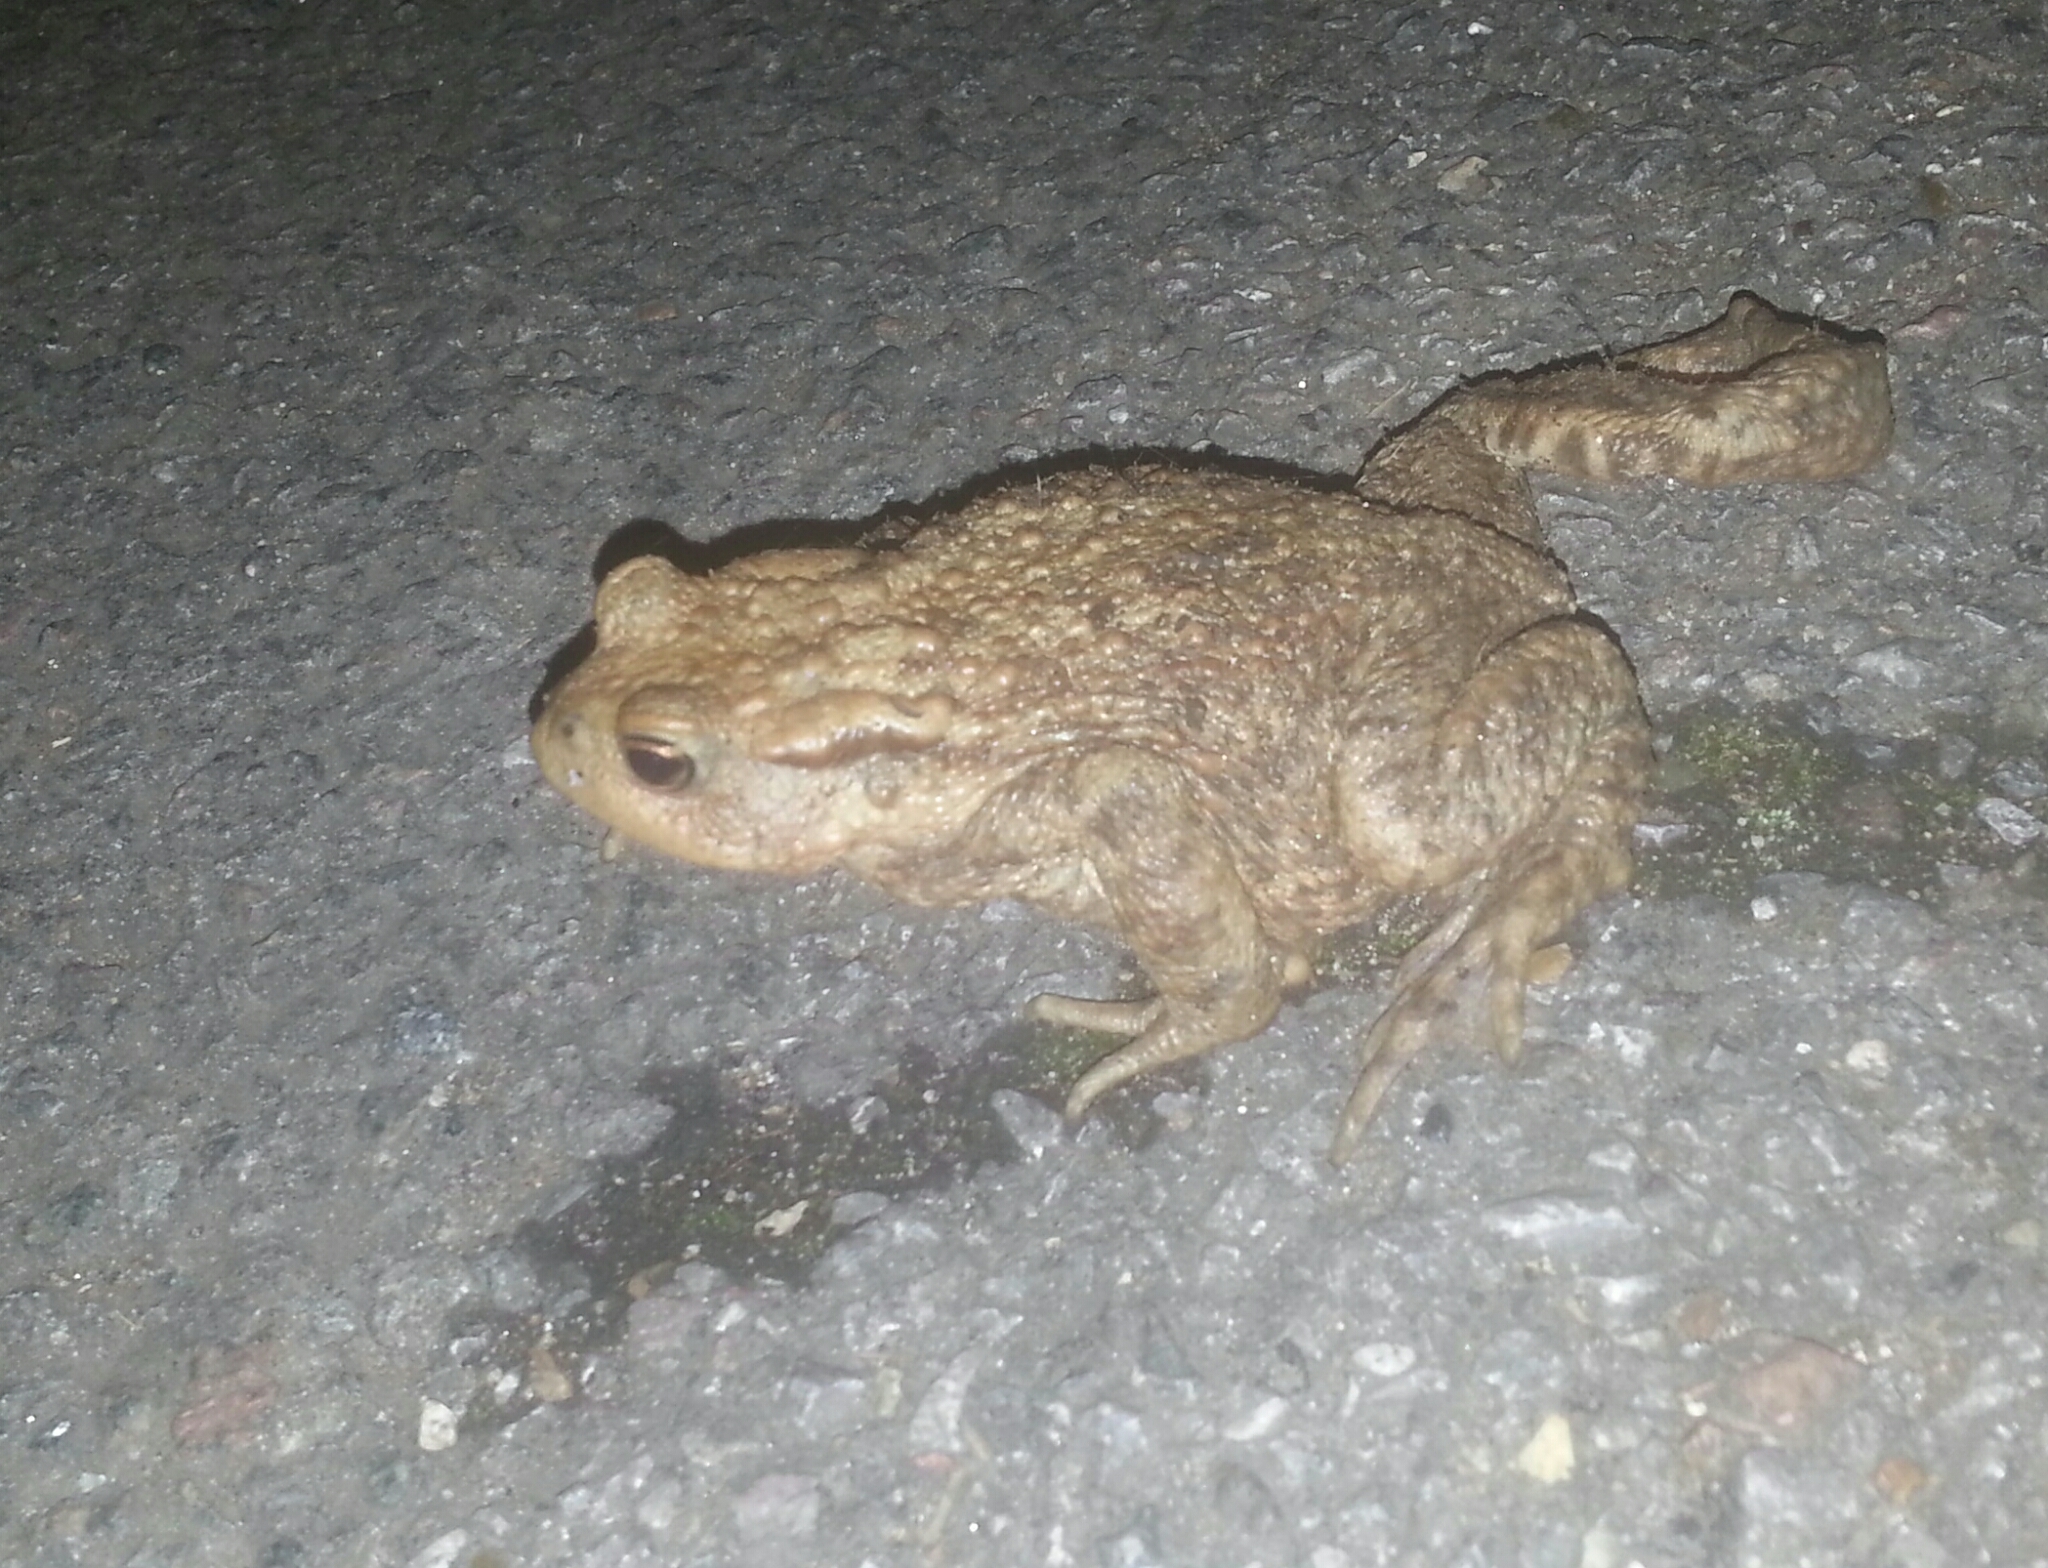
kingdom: Animalia
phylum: Chordata
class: Amphibia
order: Anura
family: Bufonidae
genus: Bufo
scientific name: Bufo bufo
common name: Common toad
